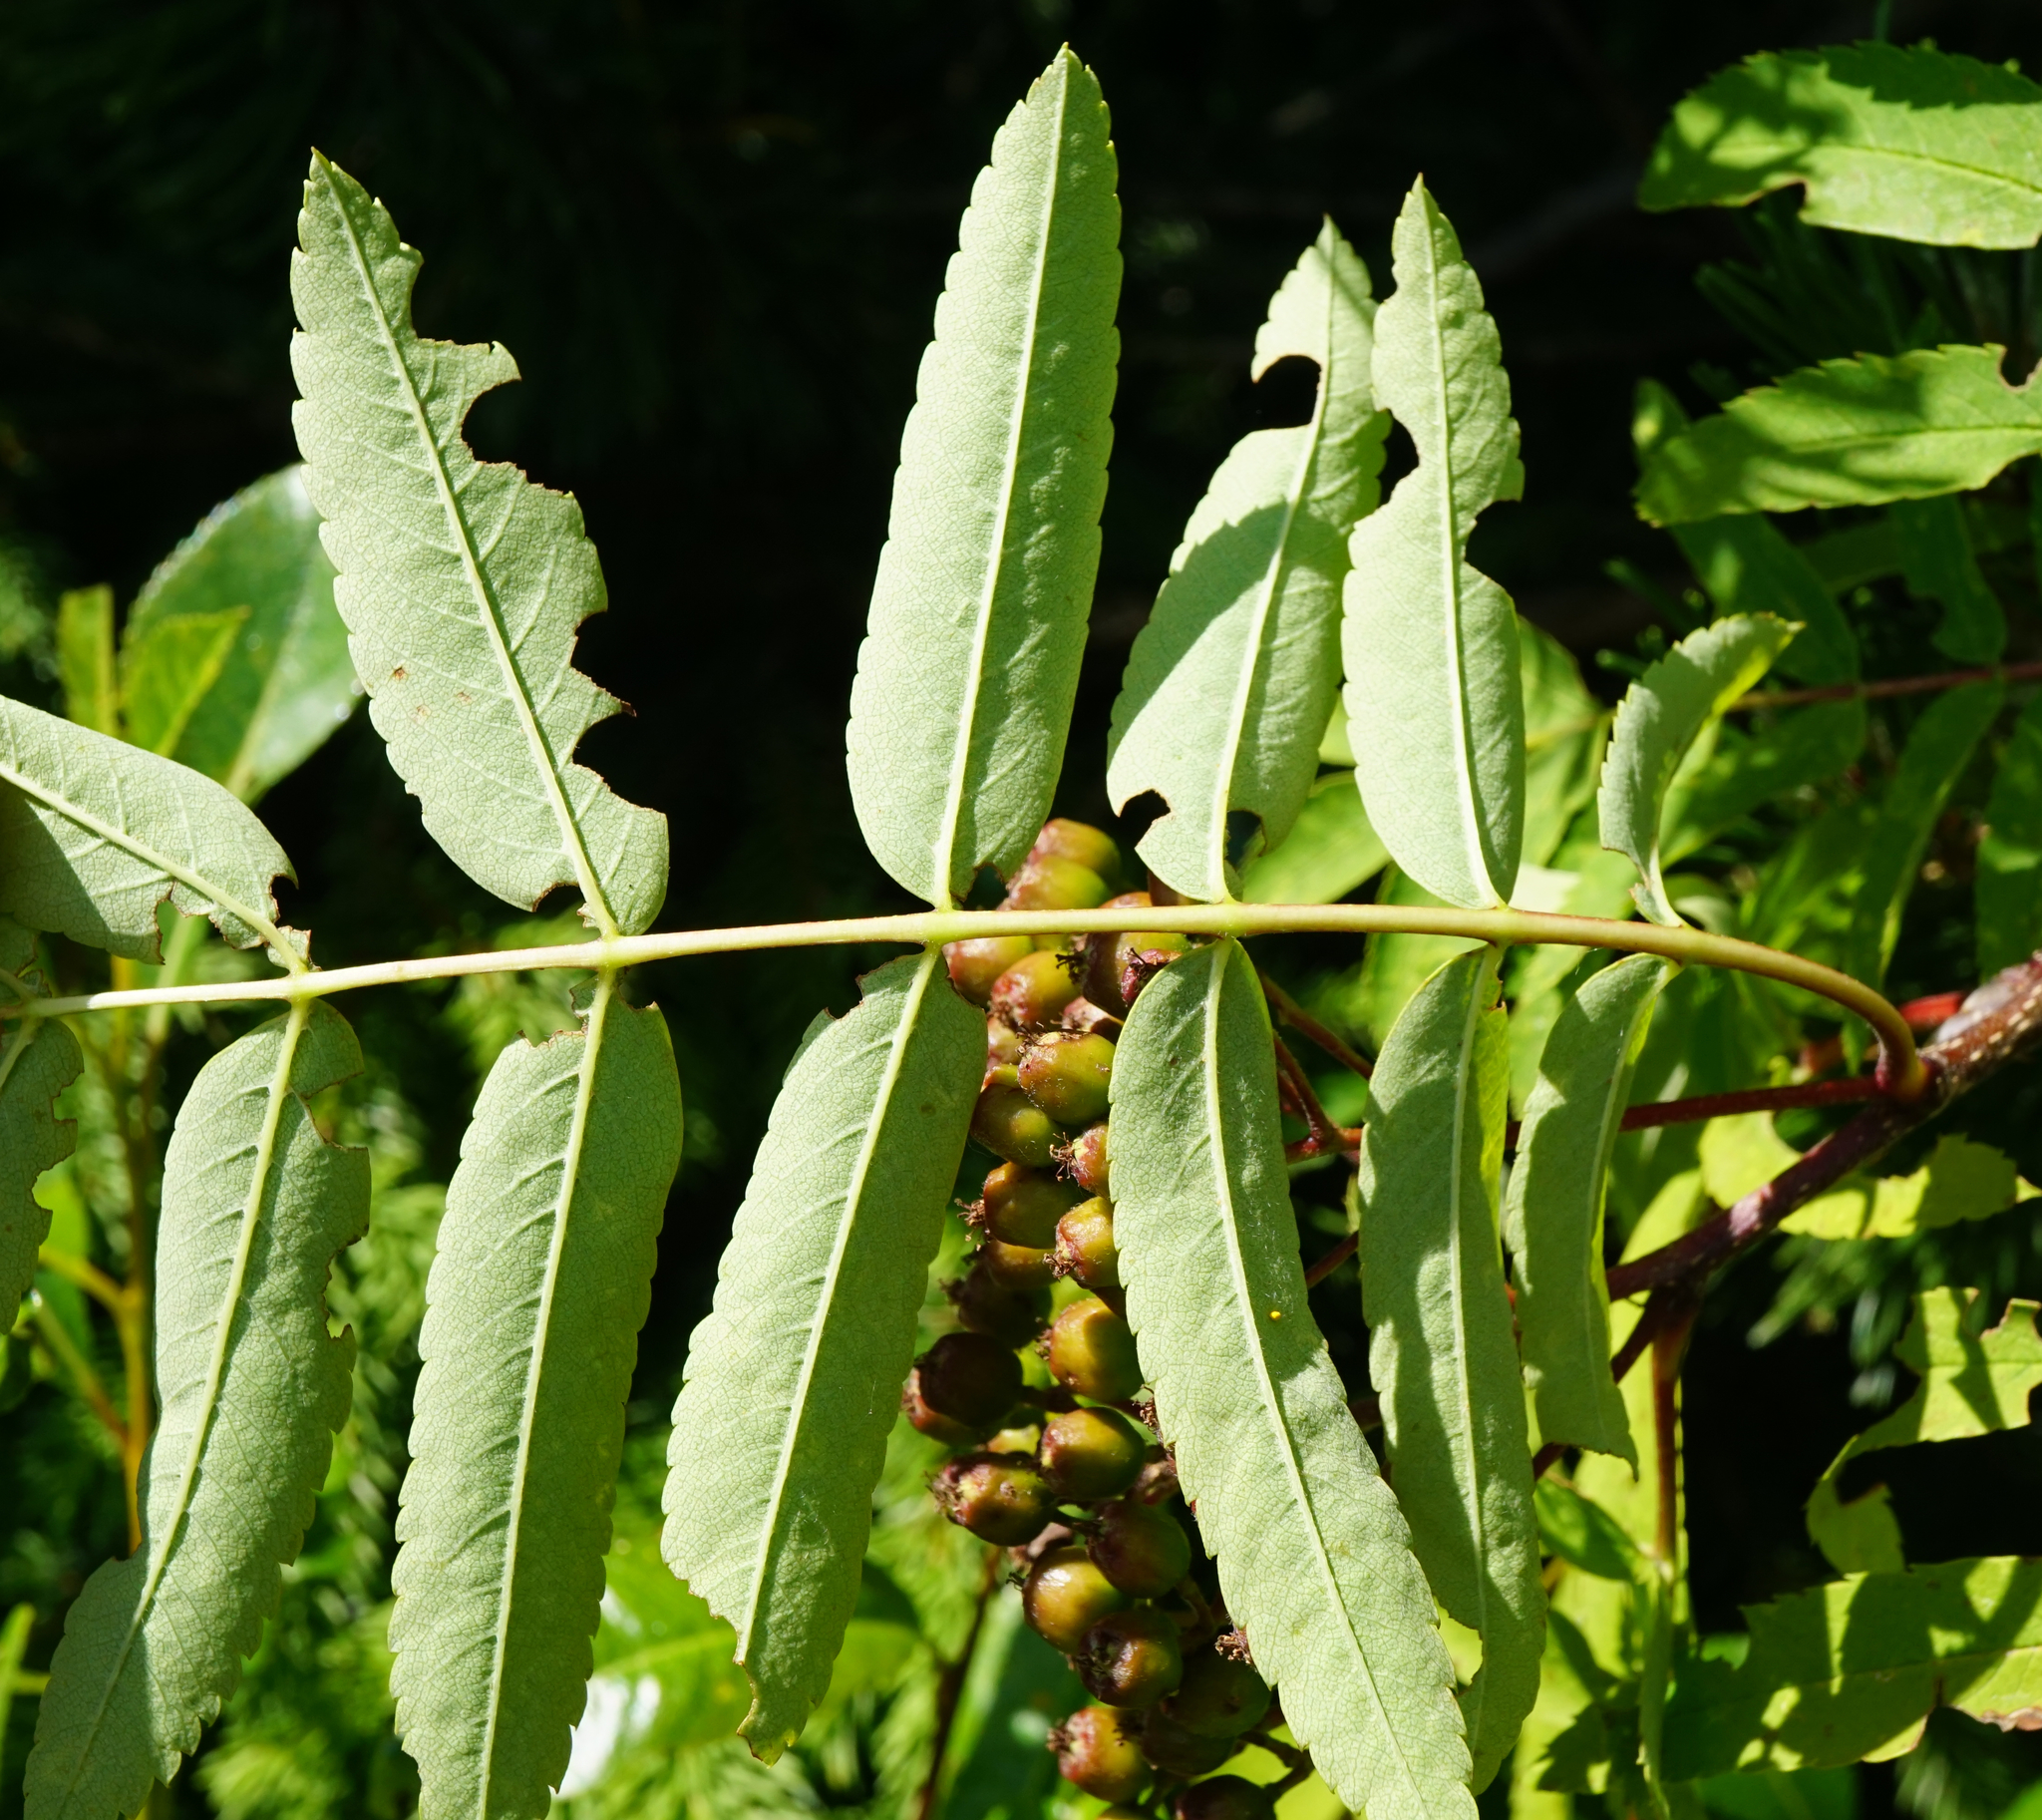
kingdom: Plantae
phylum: Tracheophyta
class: Magnoliopsida
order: Rosales
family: Rosaceae
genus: Sorbus
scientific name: Sorbus aucuparia
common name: Rowan
